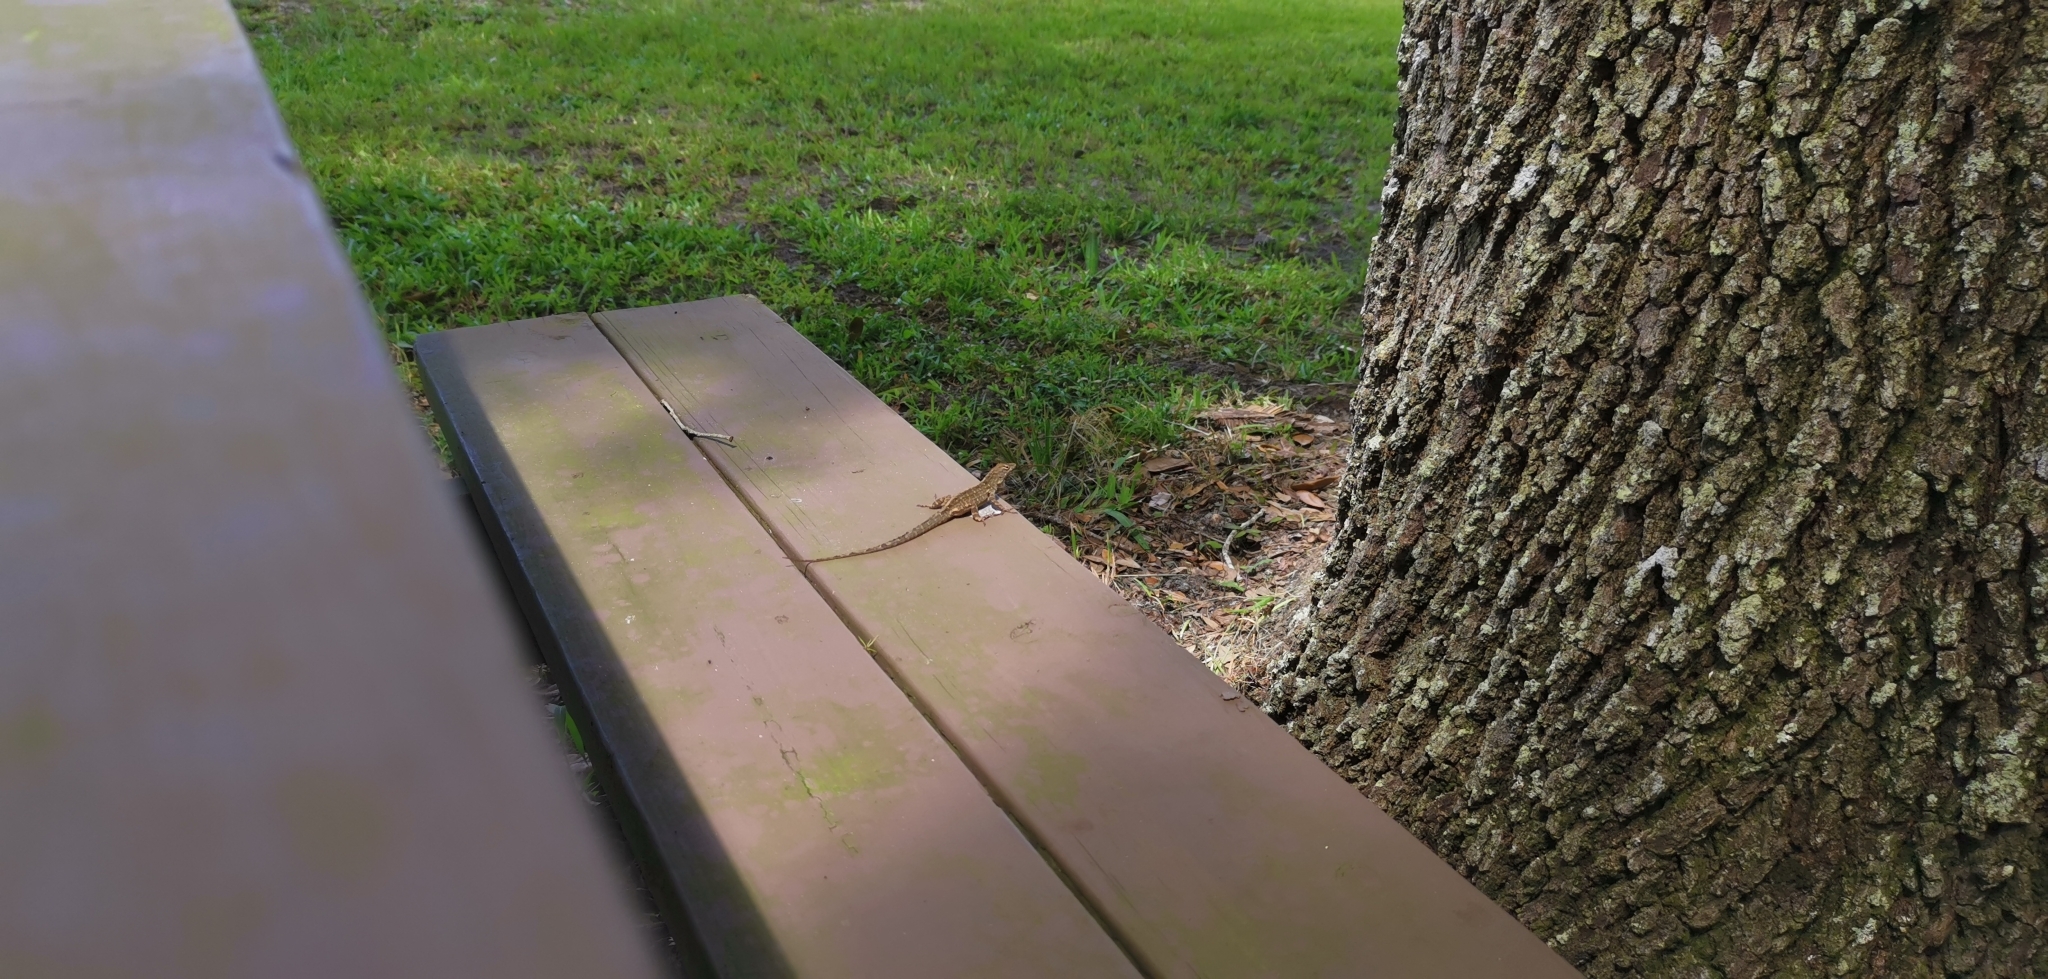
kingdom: Animalia
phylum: Chordata
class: Squamata
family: Dactyloidae
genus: Anolis
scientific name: Anolis sagrei
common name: Brown anole
